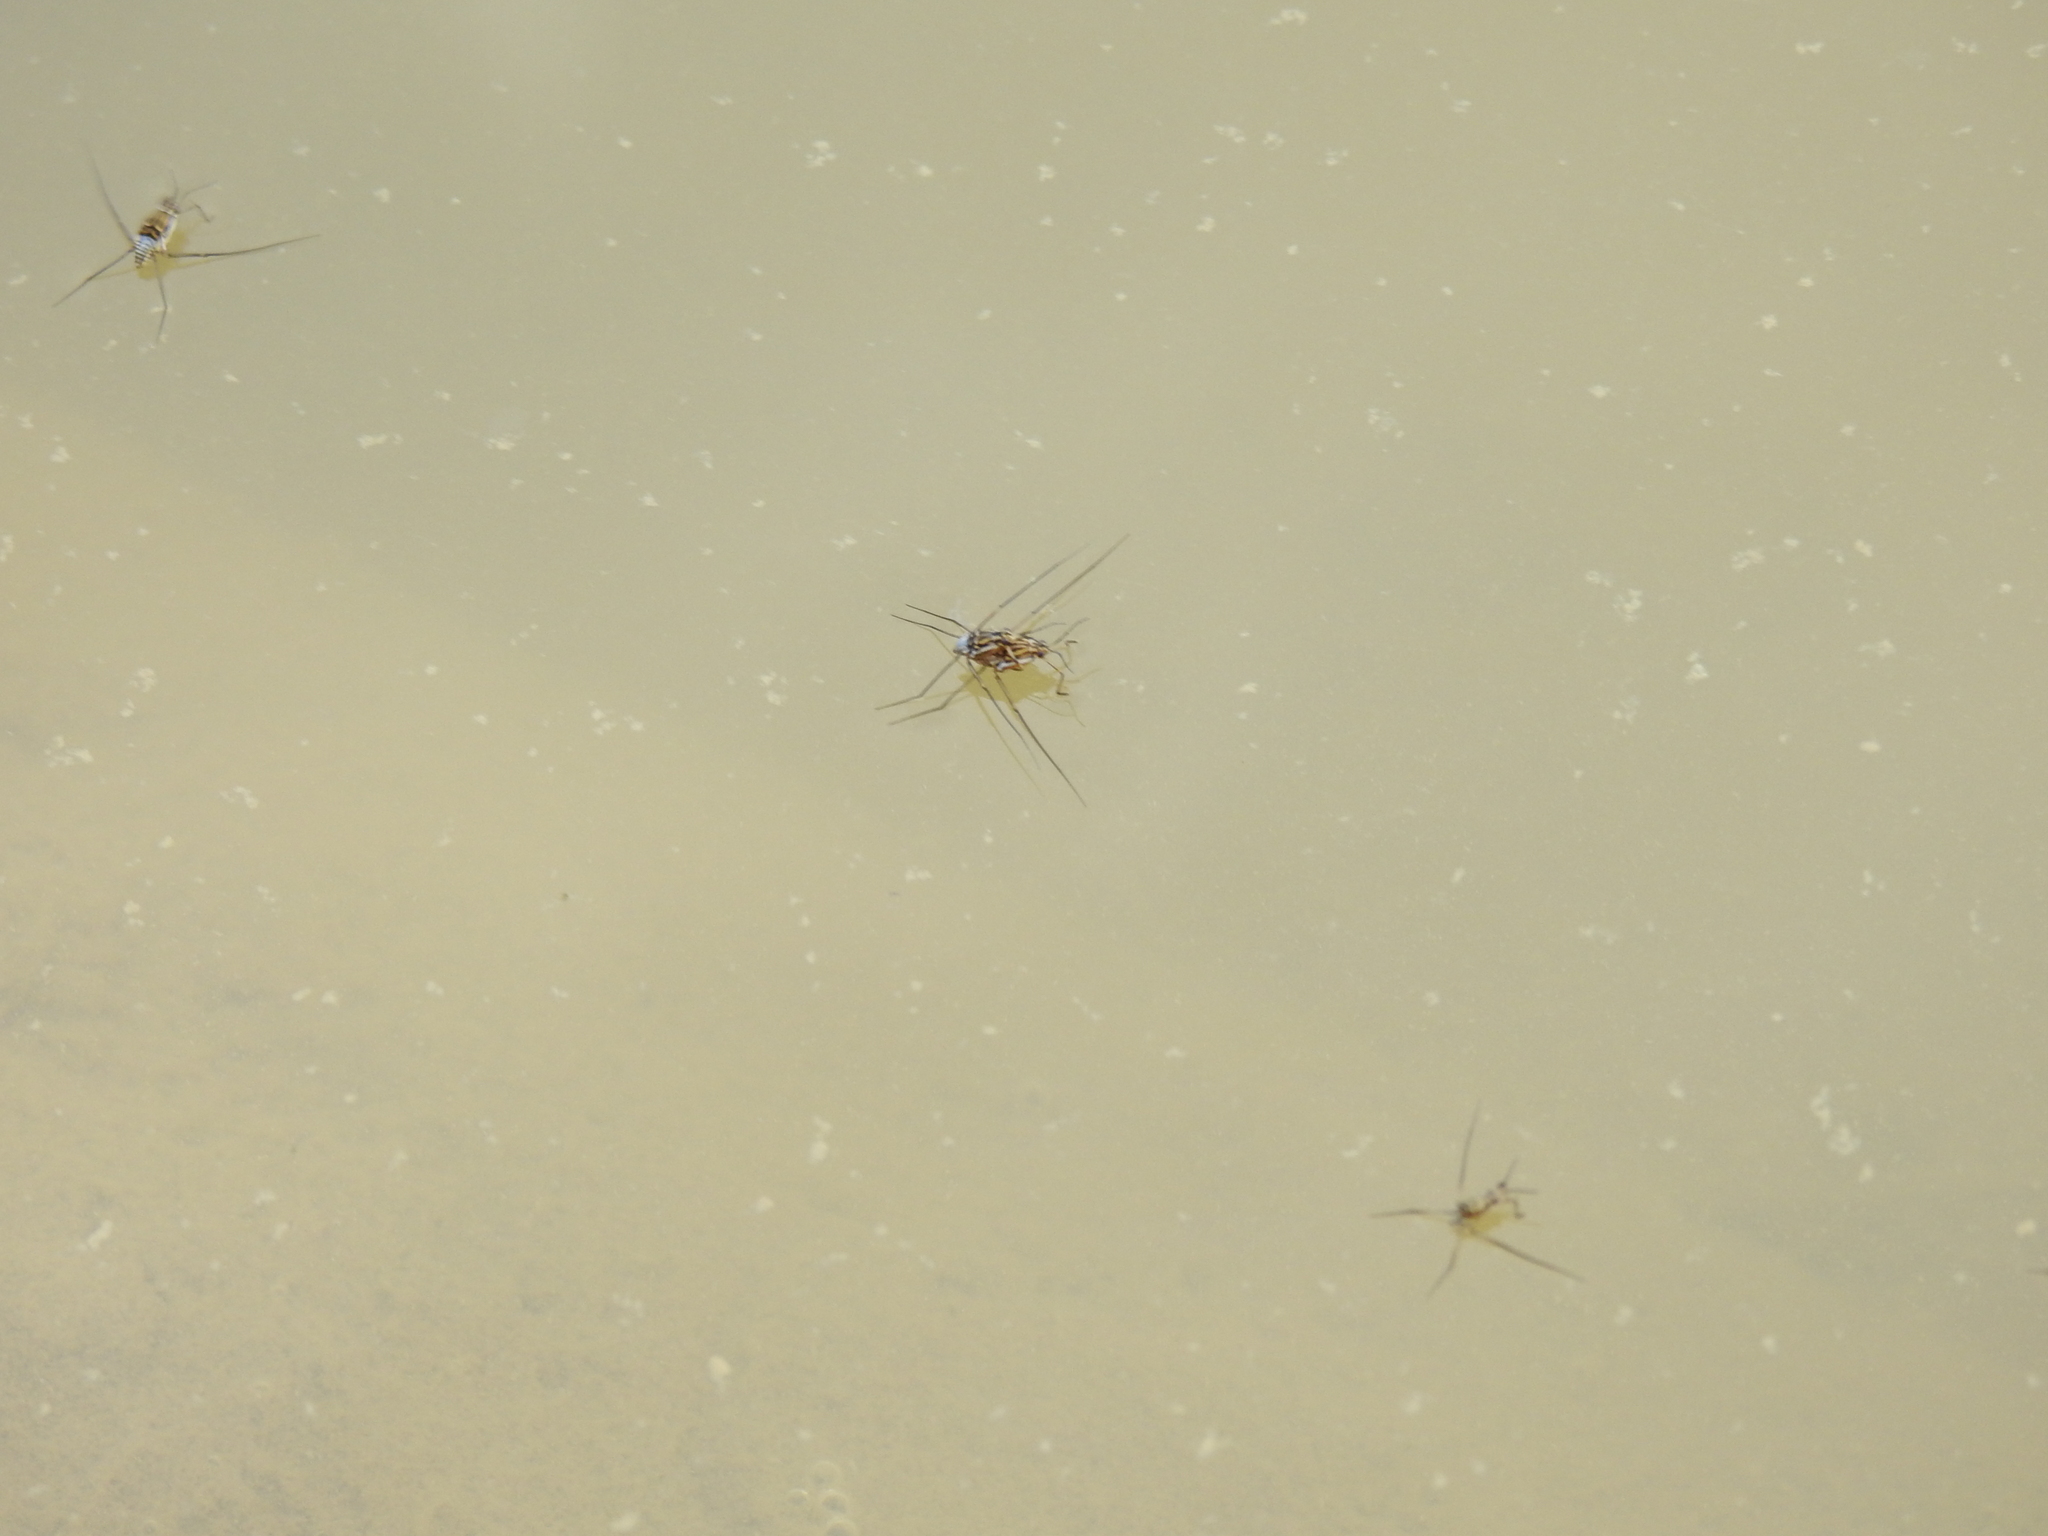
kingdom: Animalia
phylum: Arthropoda
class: Insecta
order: Hemiptera
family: Gerridae
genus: Trepobates
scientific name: Trepobates
